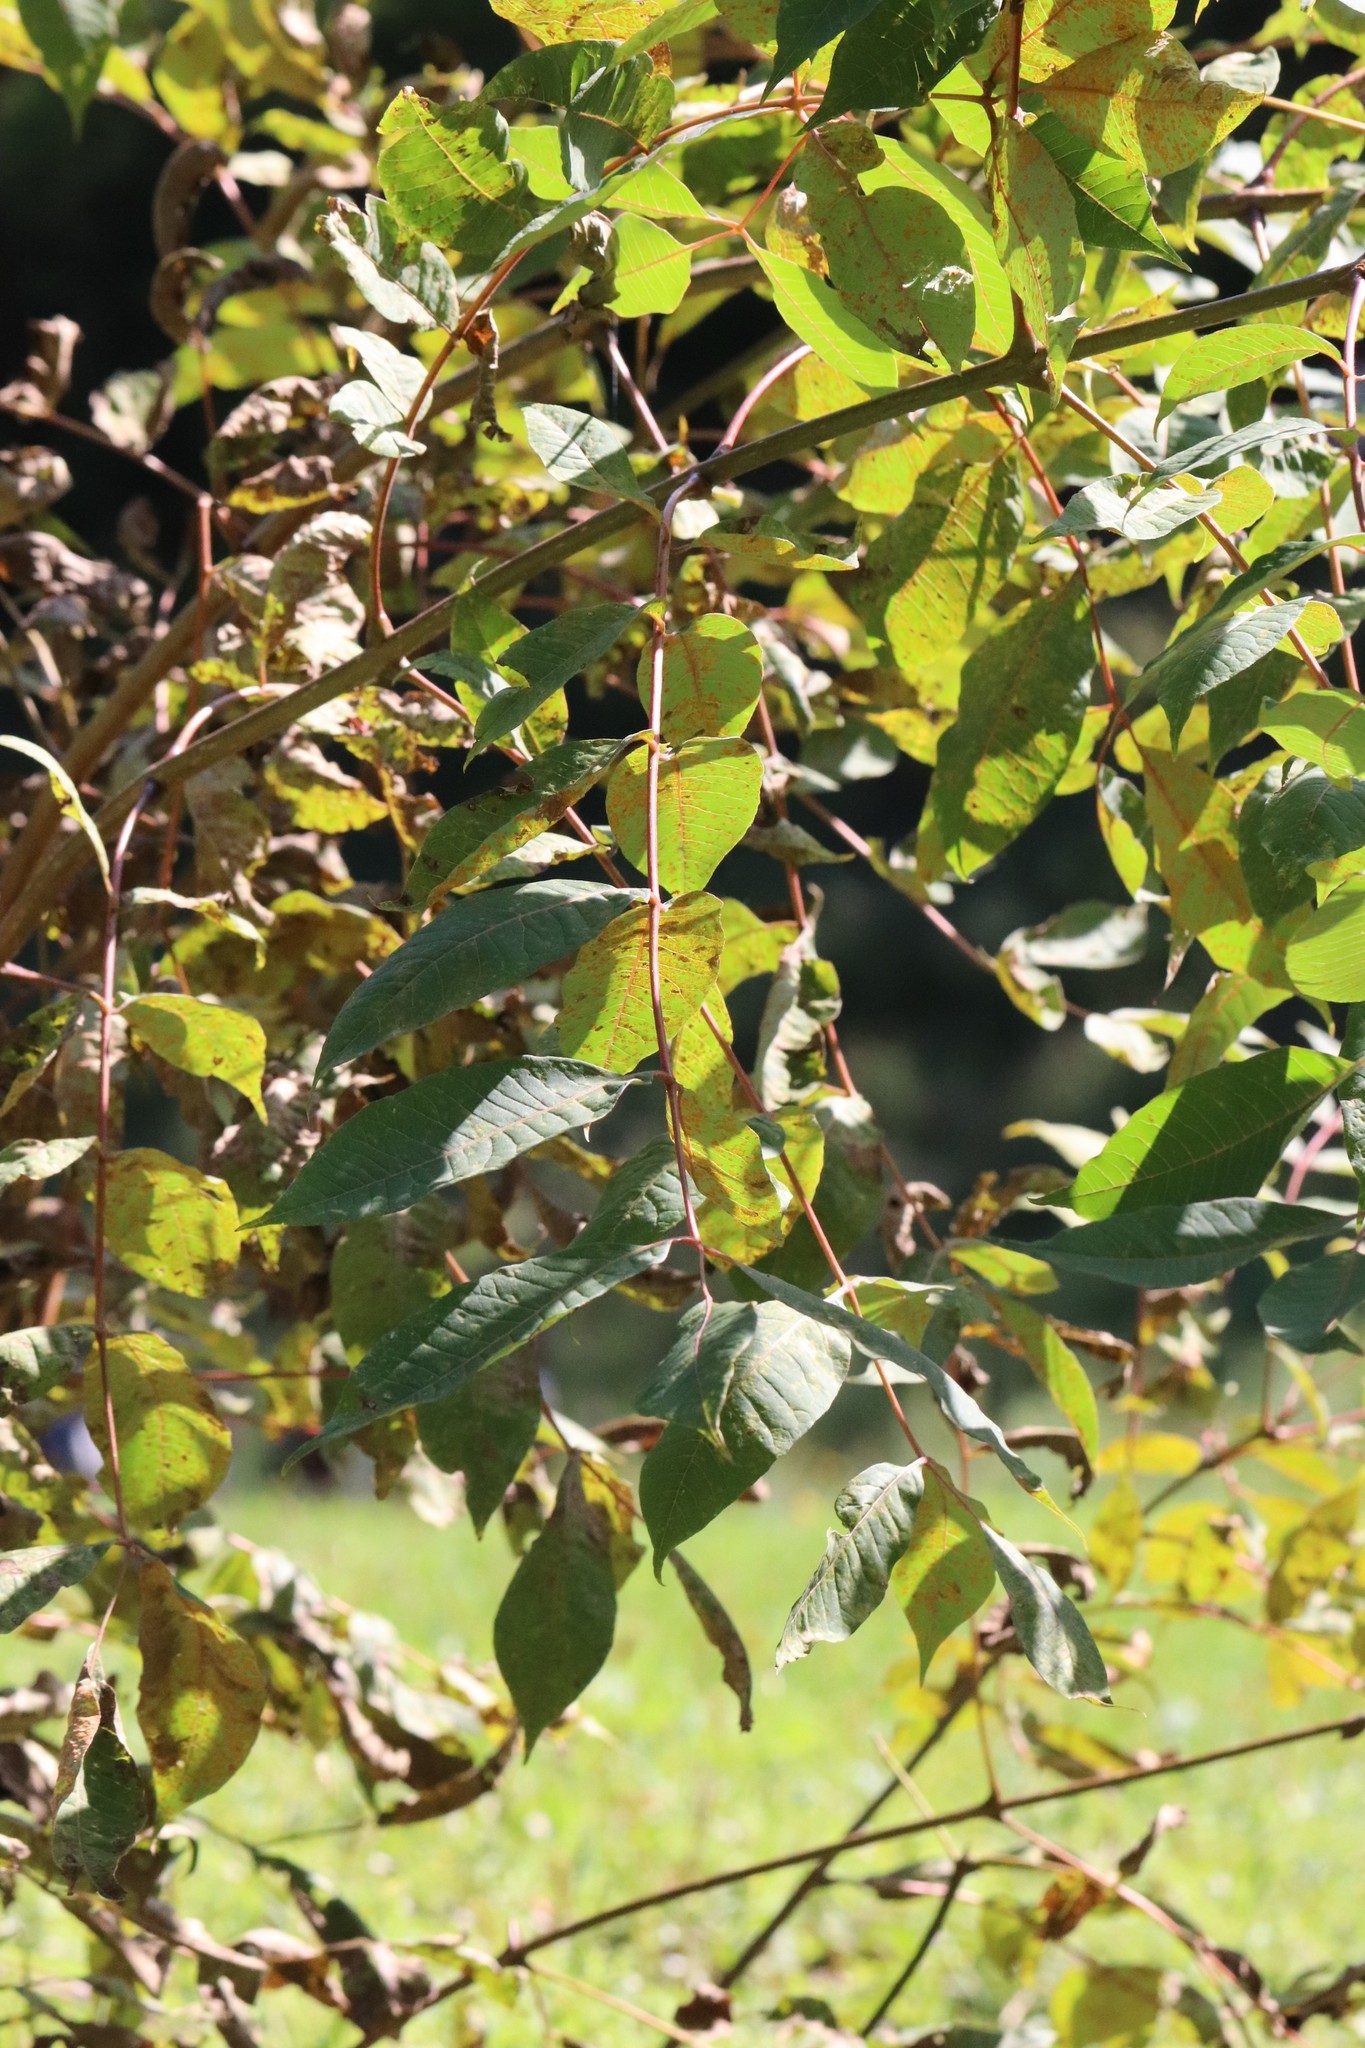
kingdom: Plantae
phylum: Tracheophyta
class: Magnoliopsida
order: Sapindales
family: Rutaceae
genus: Phellodendron
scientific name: Phellodendron amurense
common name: Amur corktree
